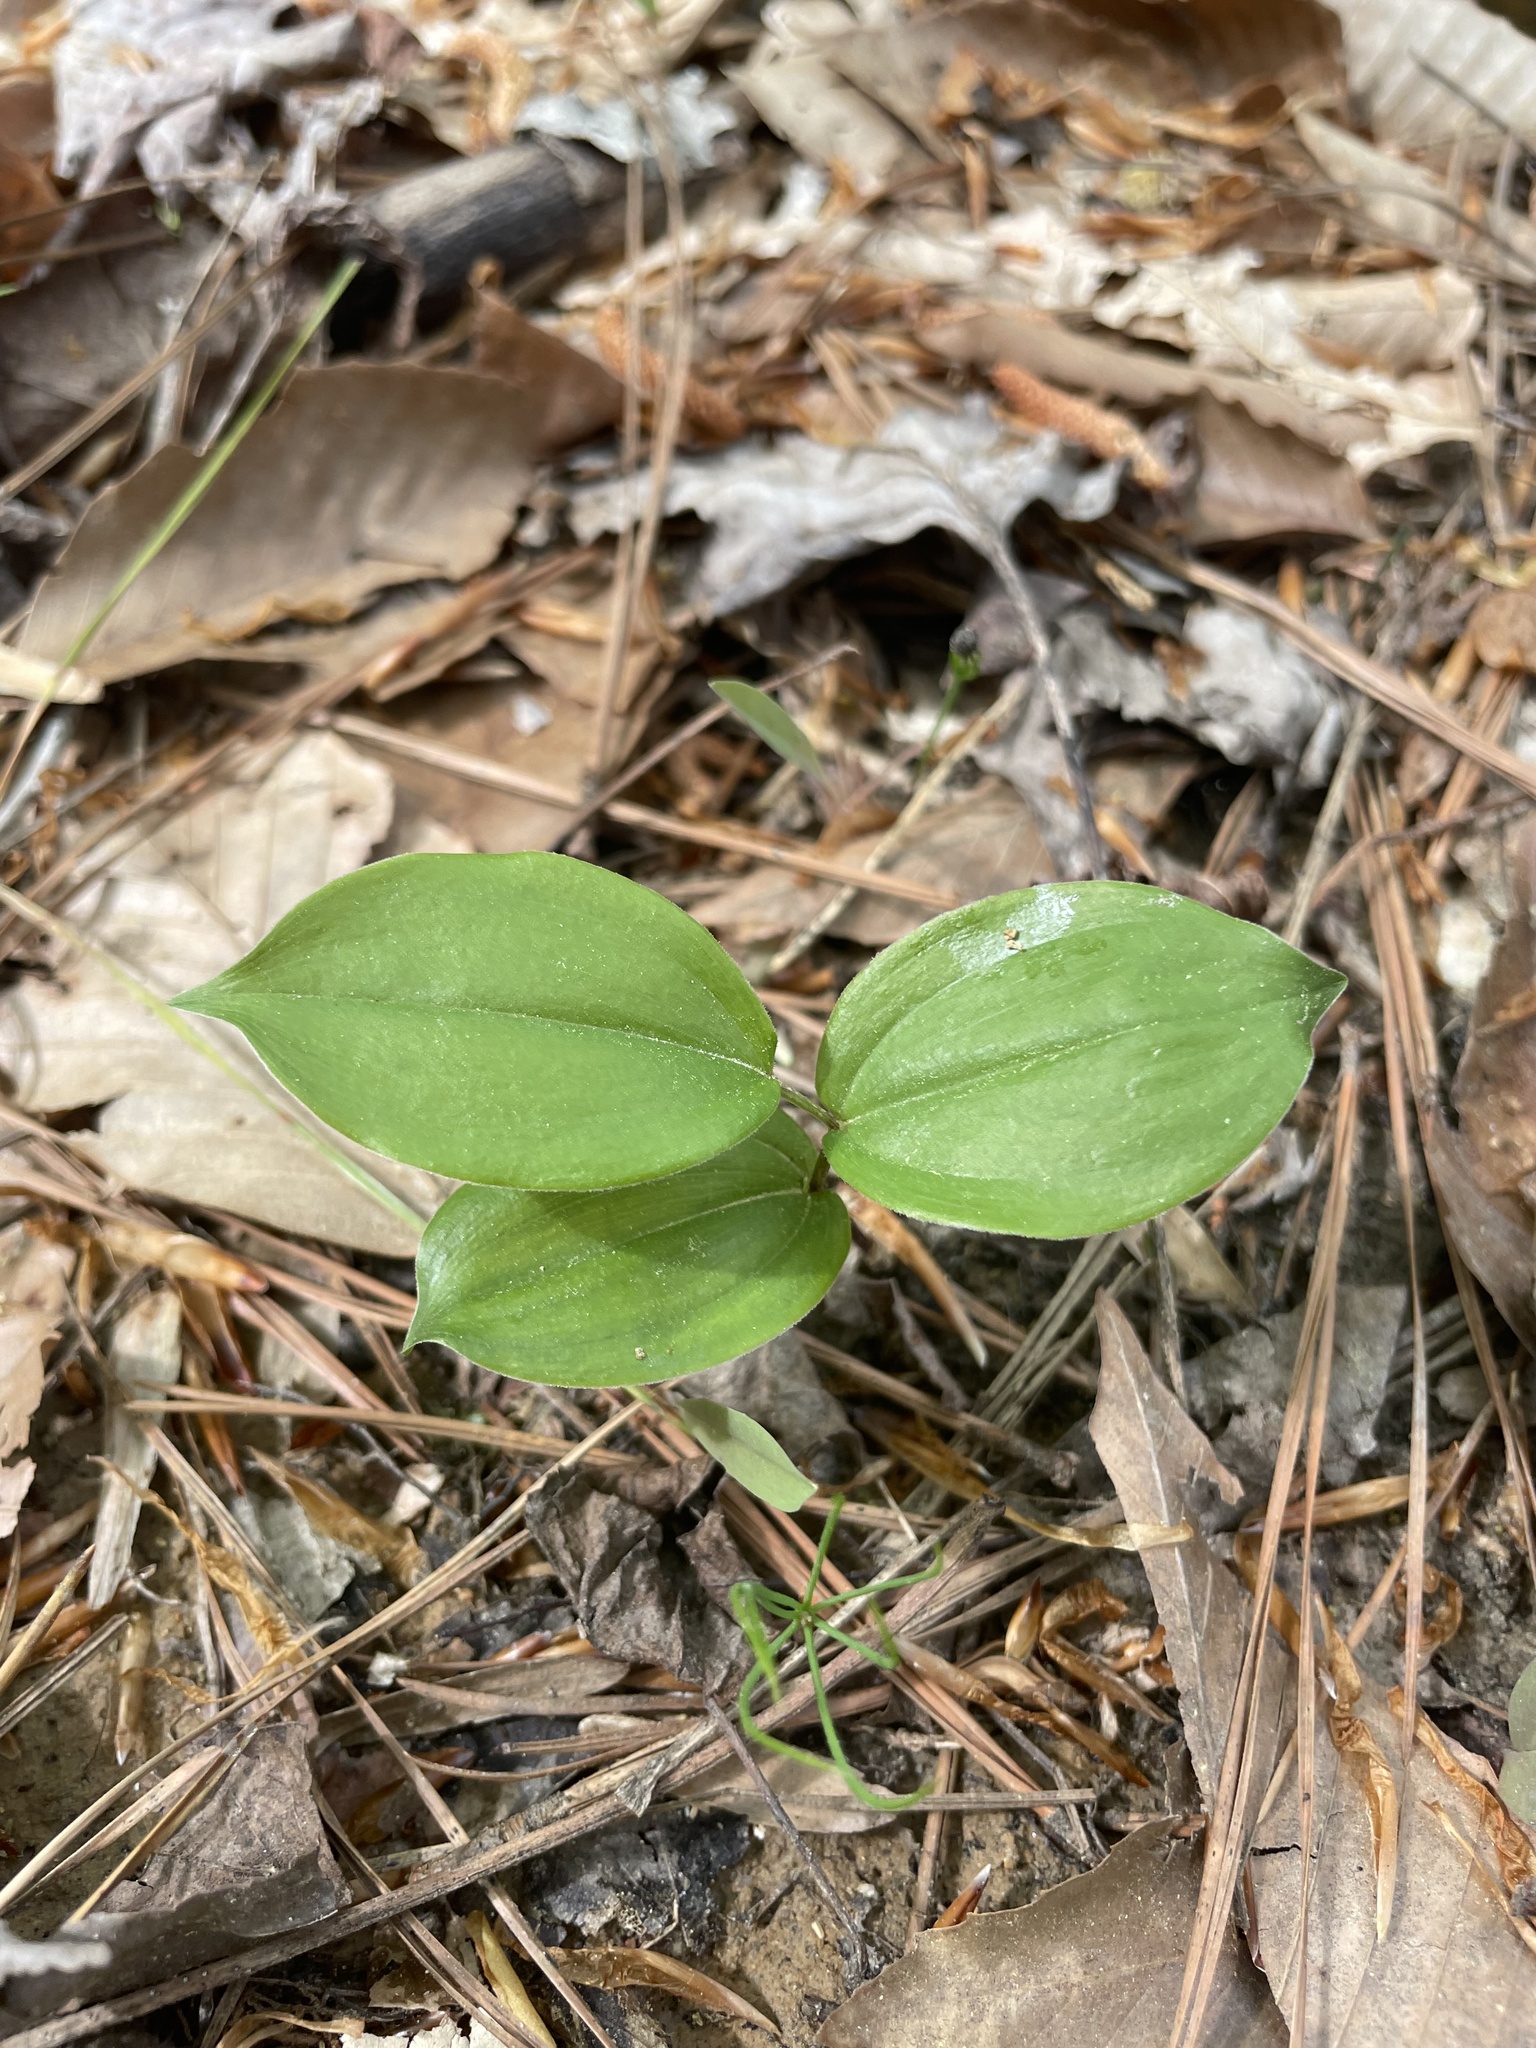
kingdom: Plantae
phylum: Tracheophyta
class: Liliopsida
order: Asparagales
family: Asparagaceae
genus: Maianthemum
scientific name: Maianthemum racemosum
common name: False spikenard
